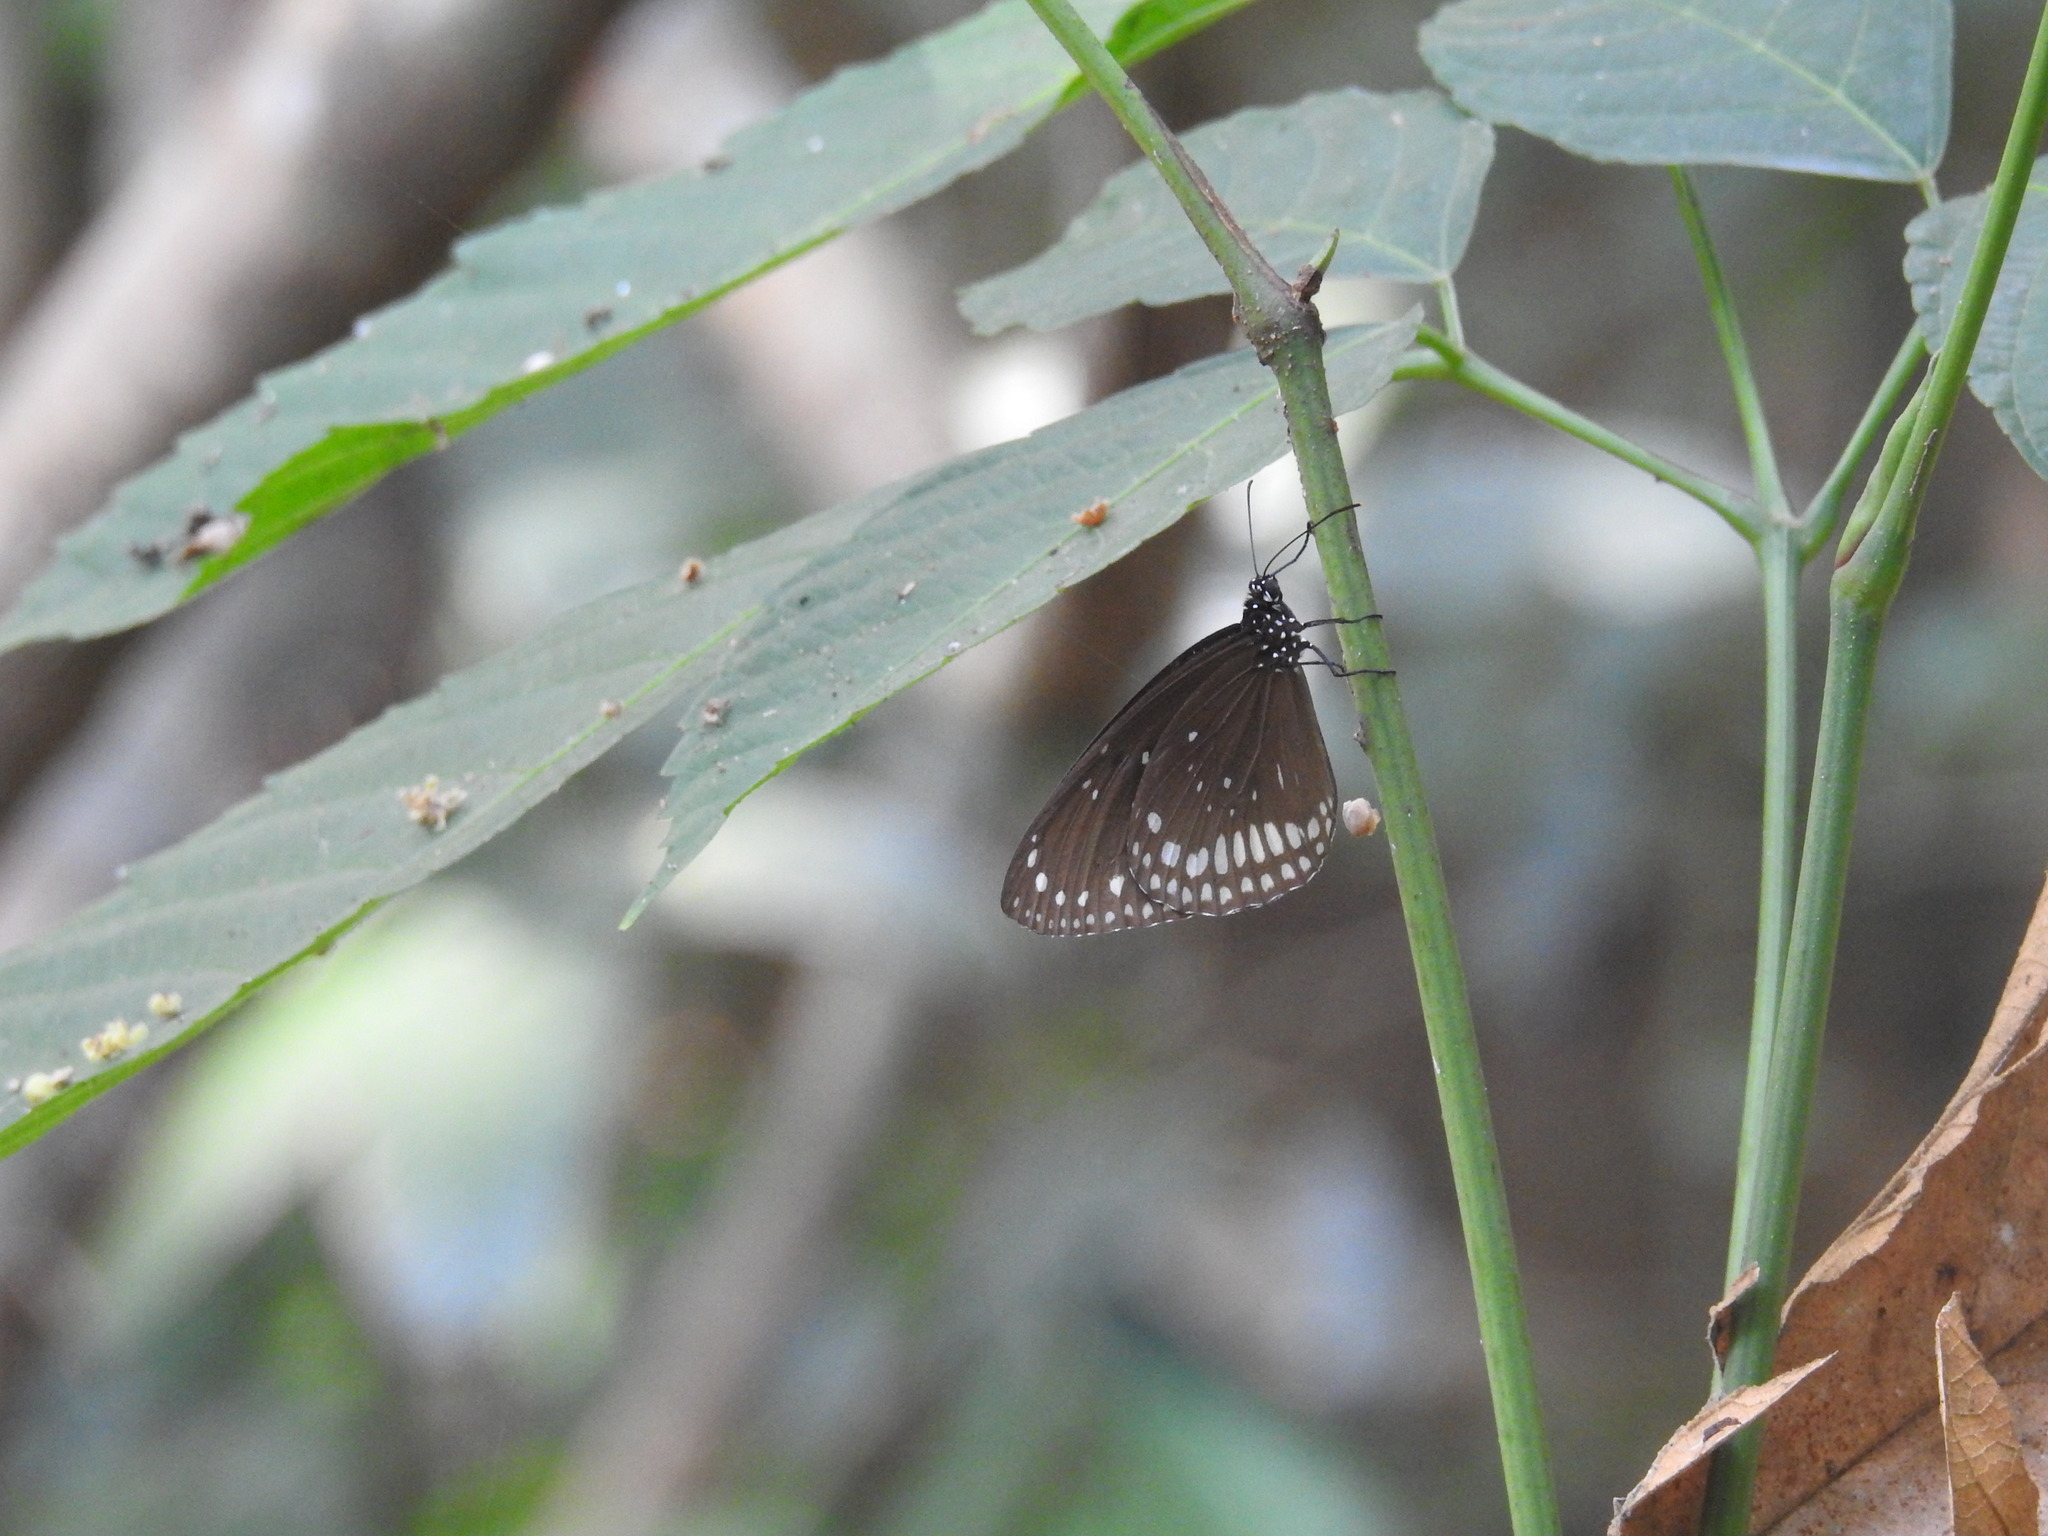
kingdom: Animalia
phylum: Arthropoda
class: Insecta
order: Lepidoptera
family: Nymphalidae
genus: Euploea
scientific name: Euploea sylvester
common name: Double-branded crow butterfly
